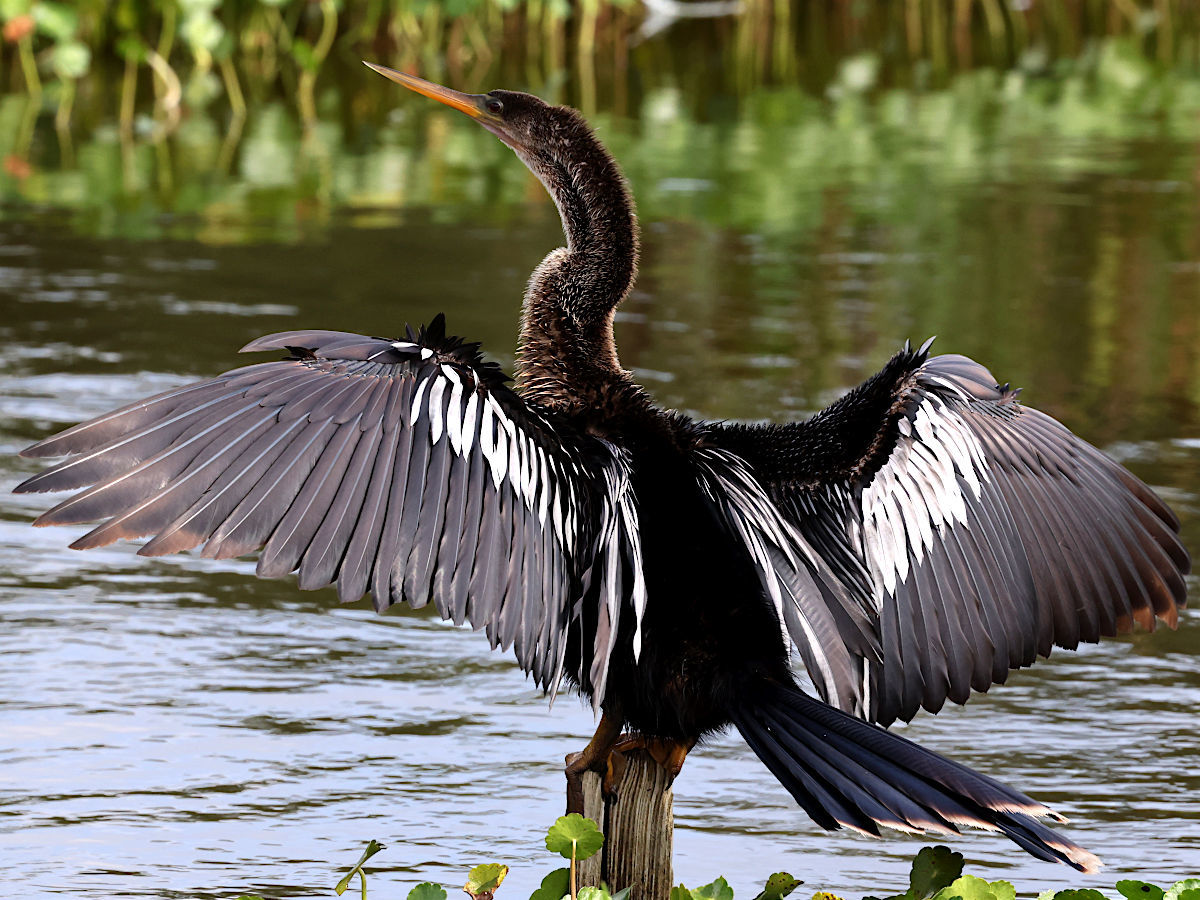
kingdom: Animalia
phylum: Chordata
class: Aves
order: Suliformes
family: Anhingidae
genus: Anhinga
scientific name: Anhinga anhinga
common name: Anhinga
